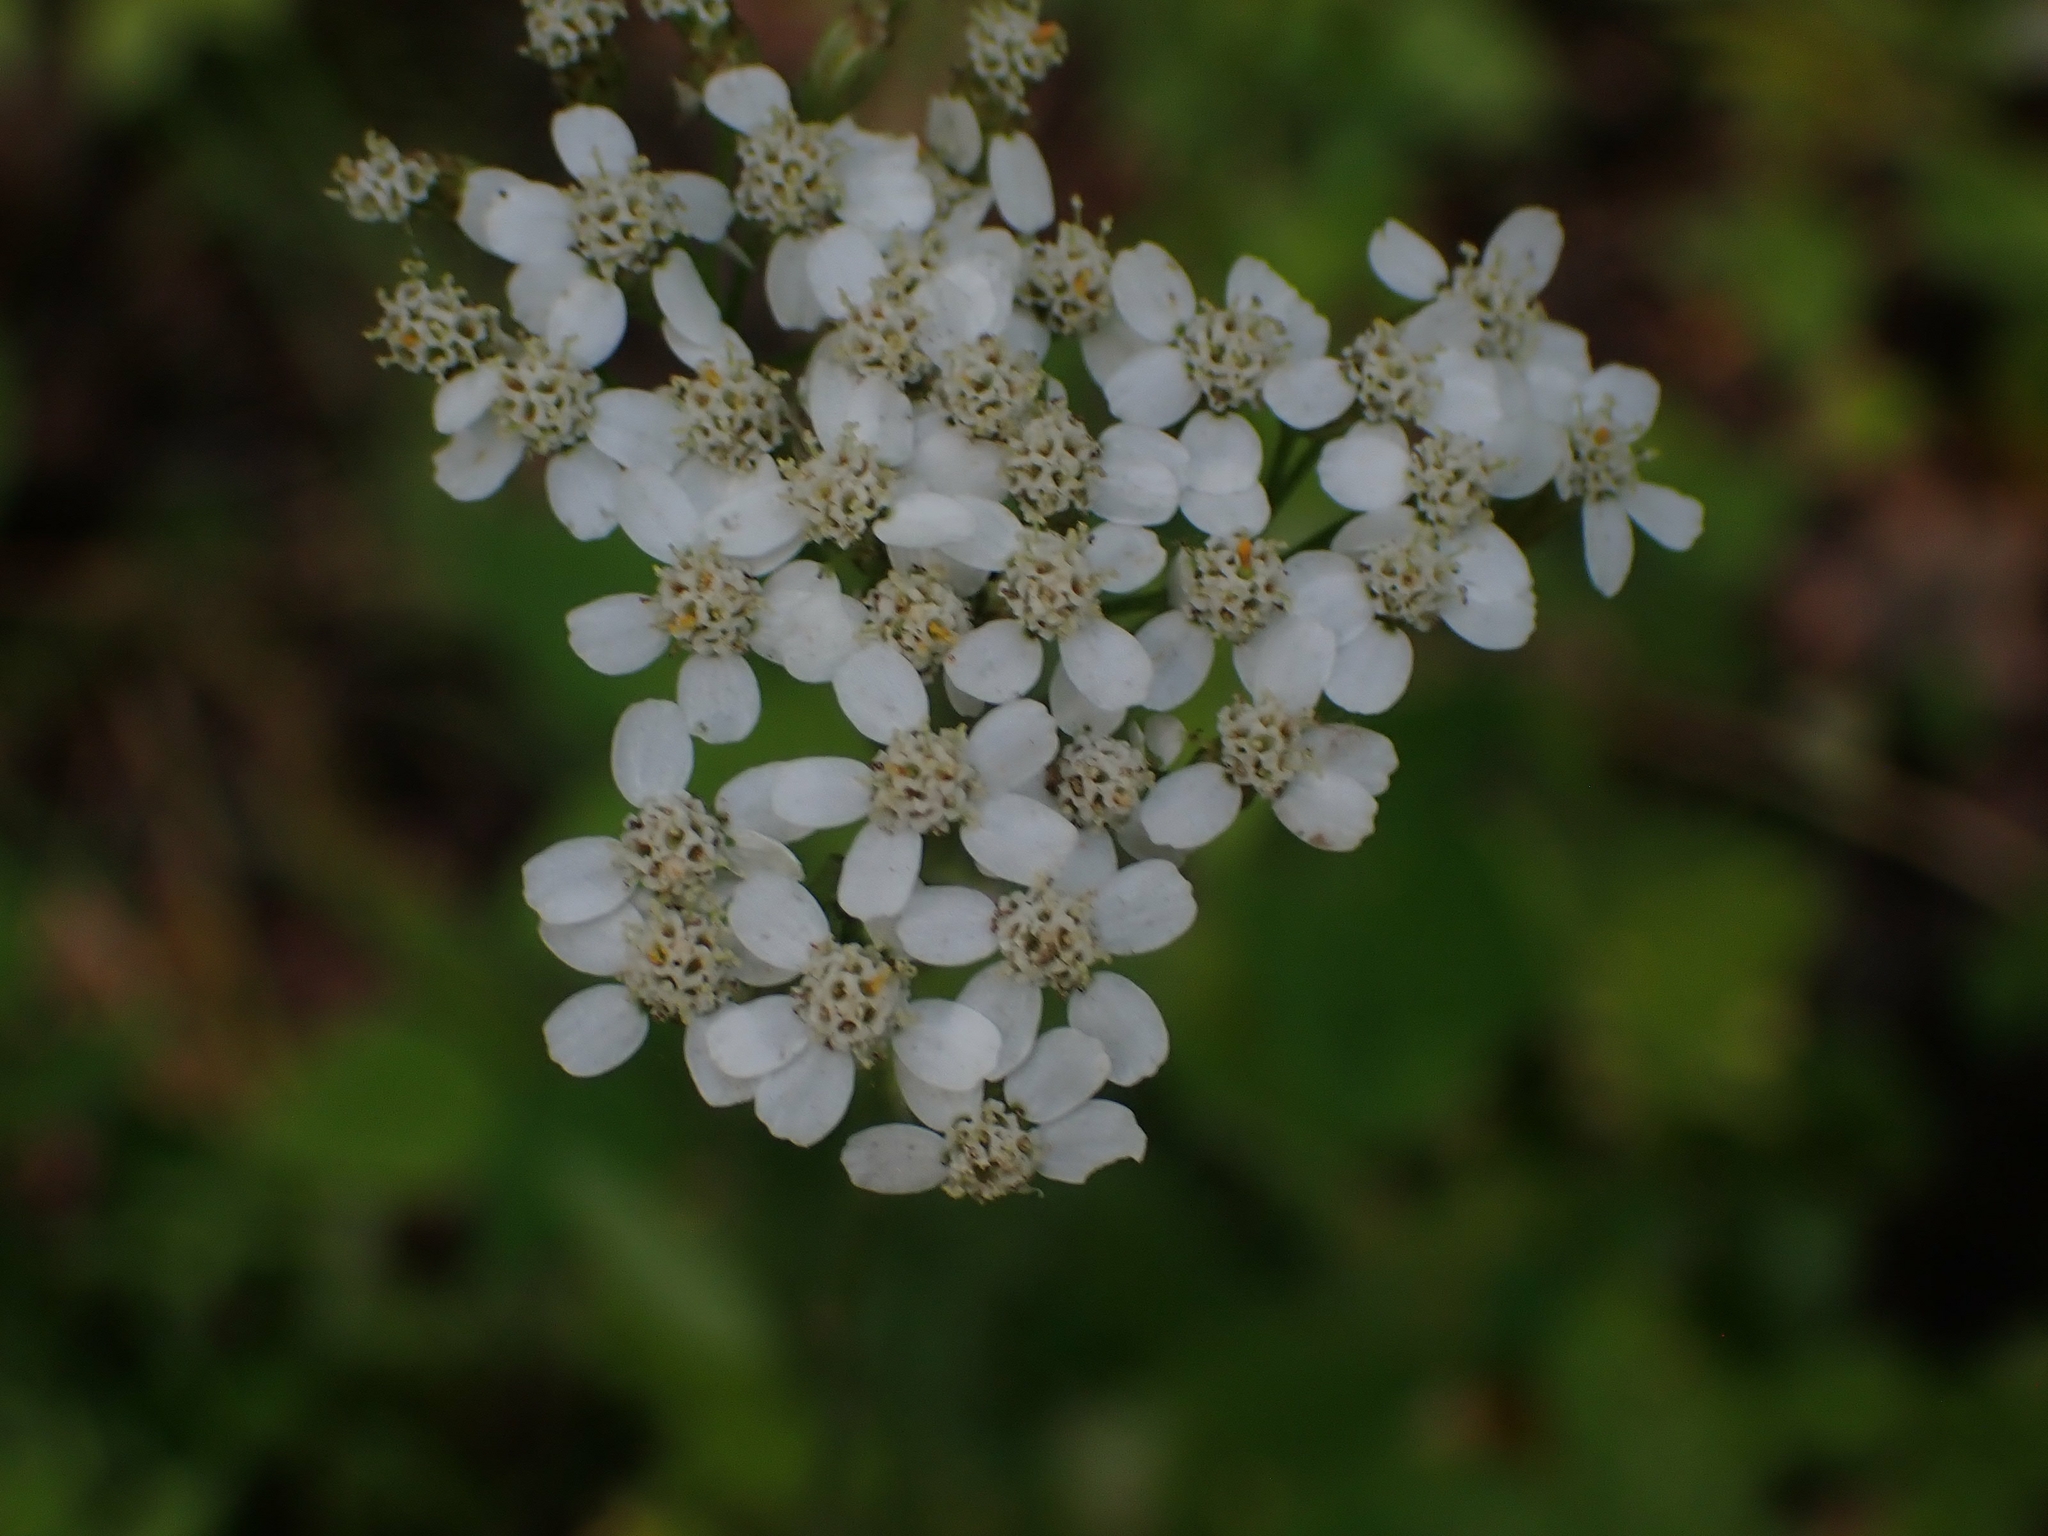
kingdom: Plantae
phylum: Tracheophyta
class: Magnoliopsida
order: Asterales
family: Asteraceae
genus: Achillea
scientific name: Achillea millefolium
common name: Yarrow
